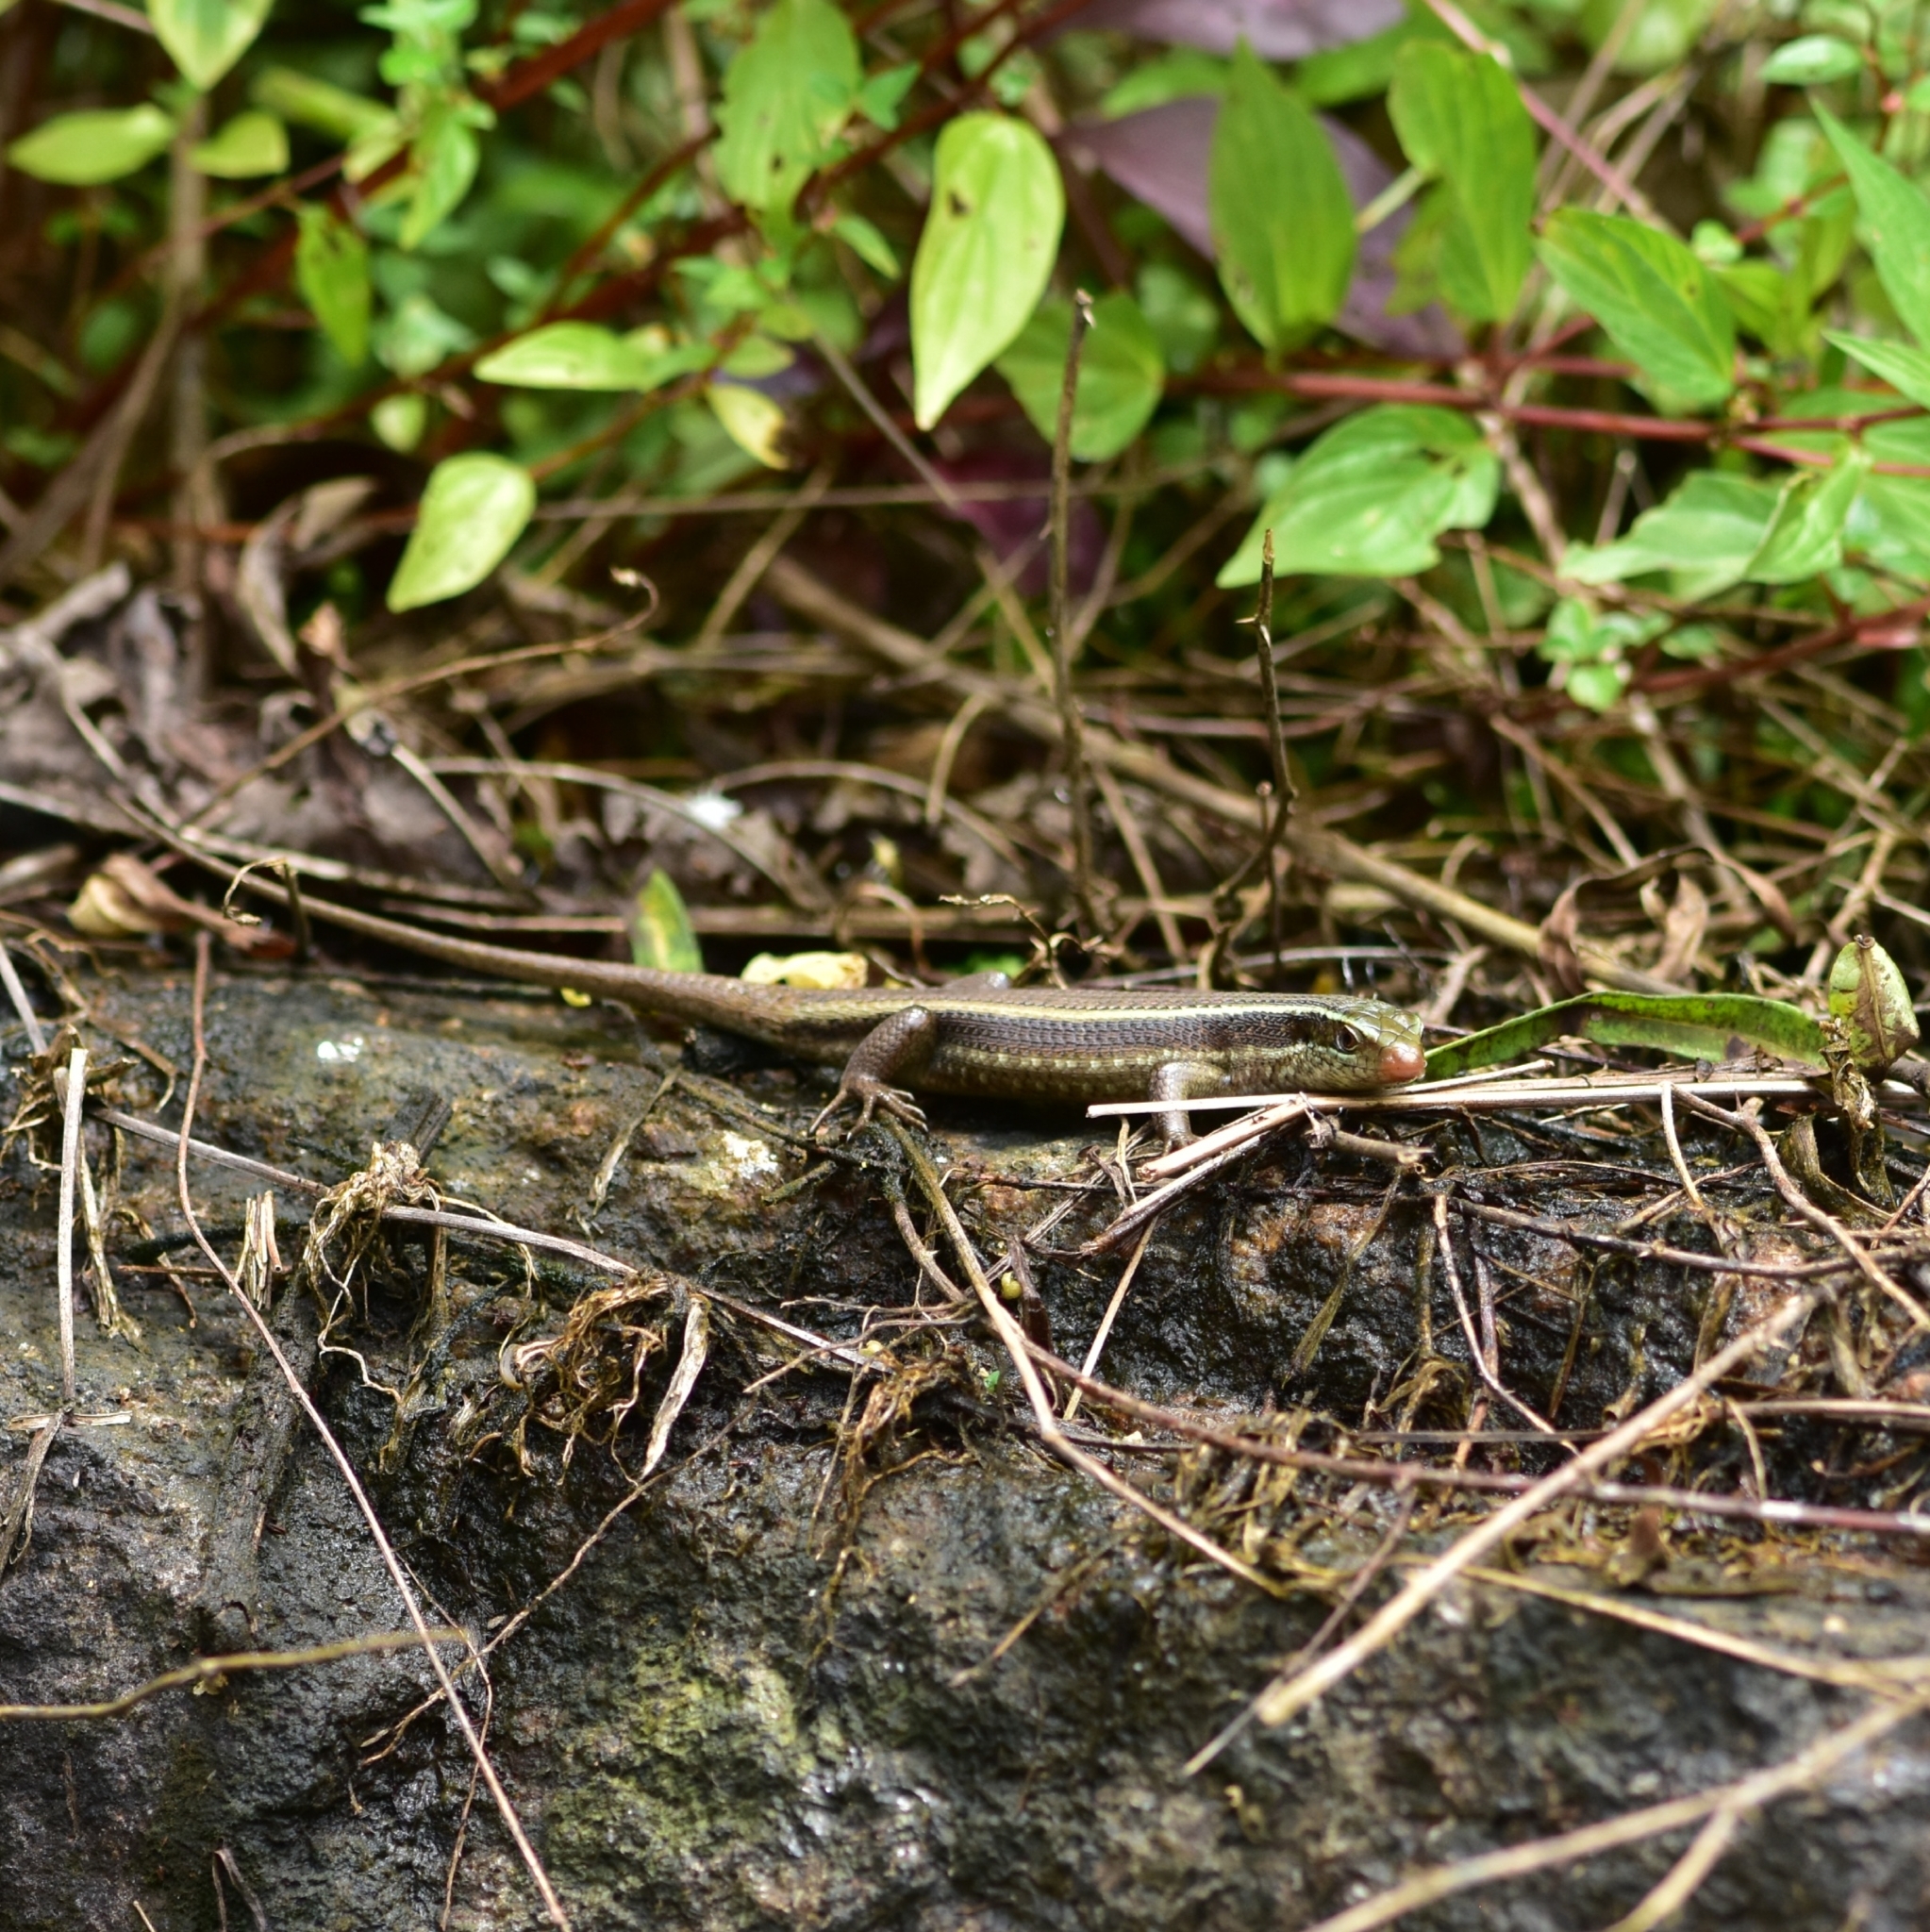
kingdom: Animalia
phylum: Chordata
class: Squamata
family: Scincidae
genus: Eutropis
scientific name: Eutropis carinata
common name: Keeled indian mabuya
